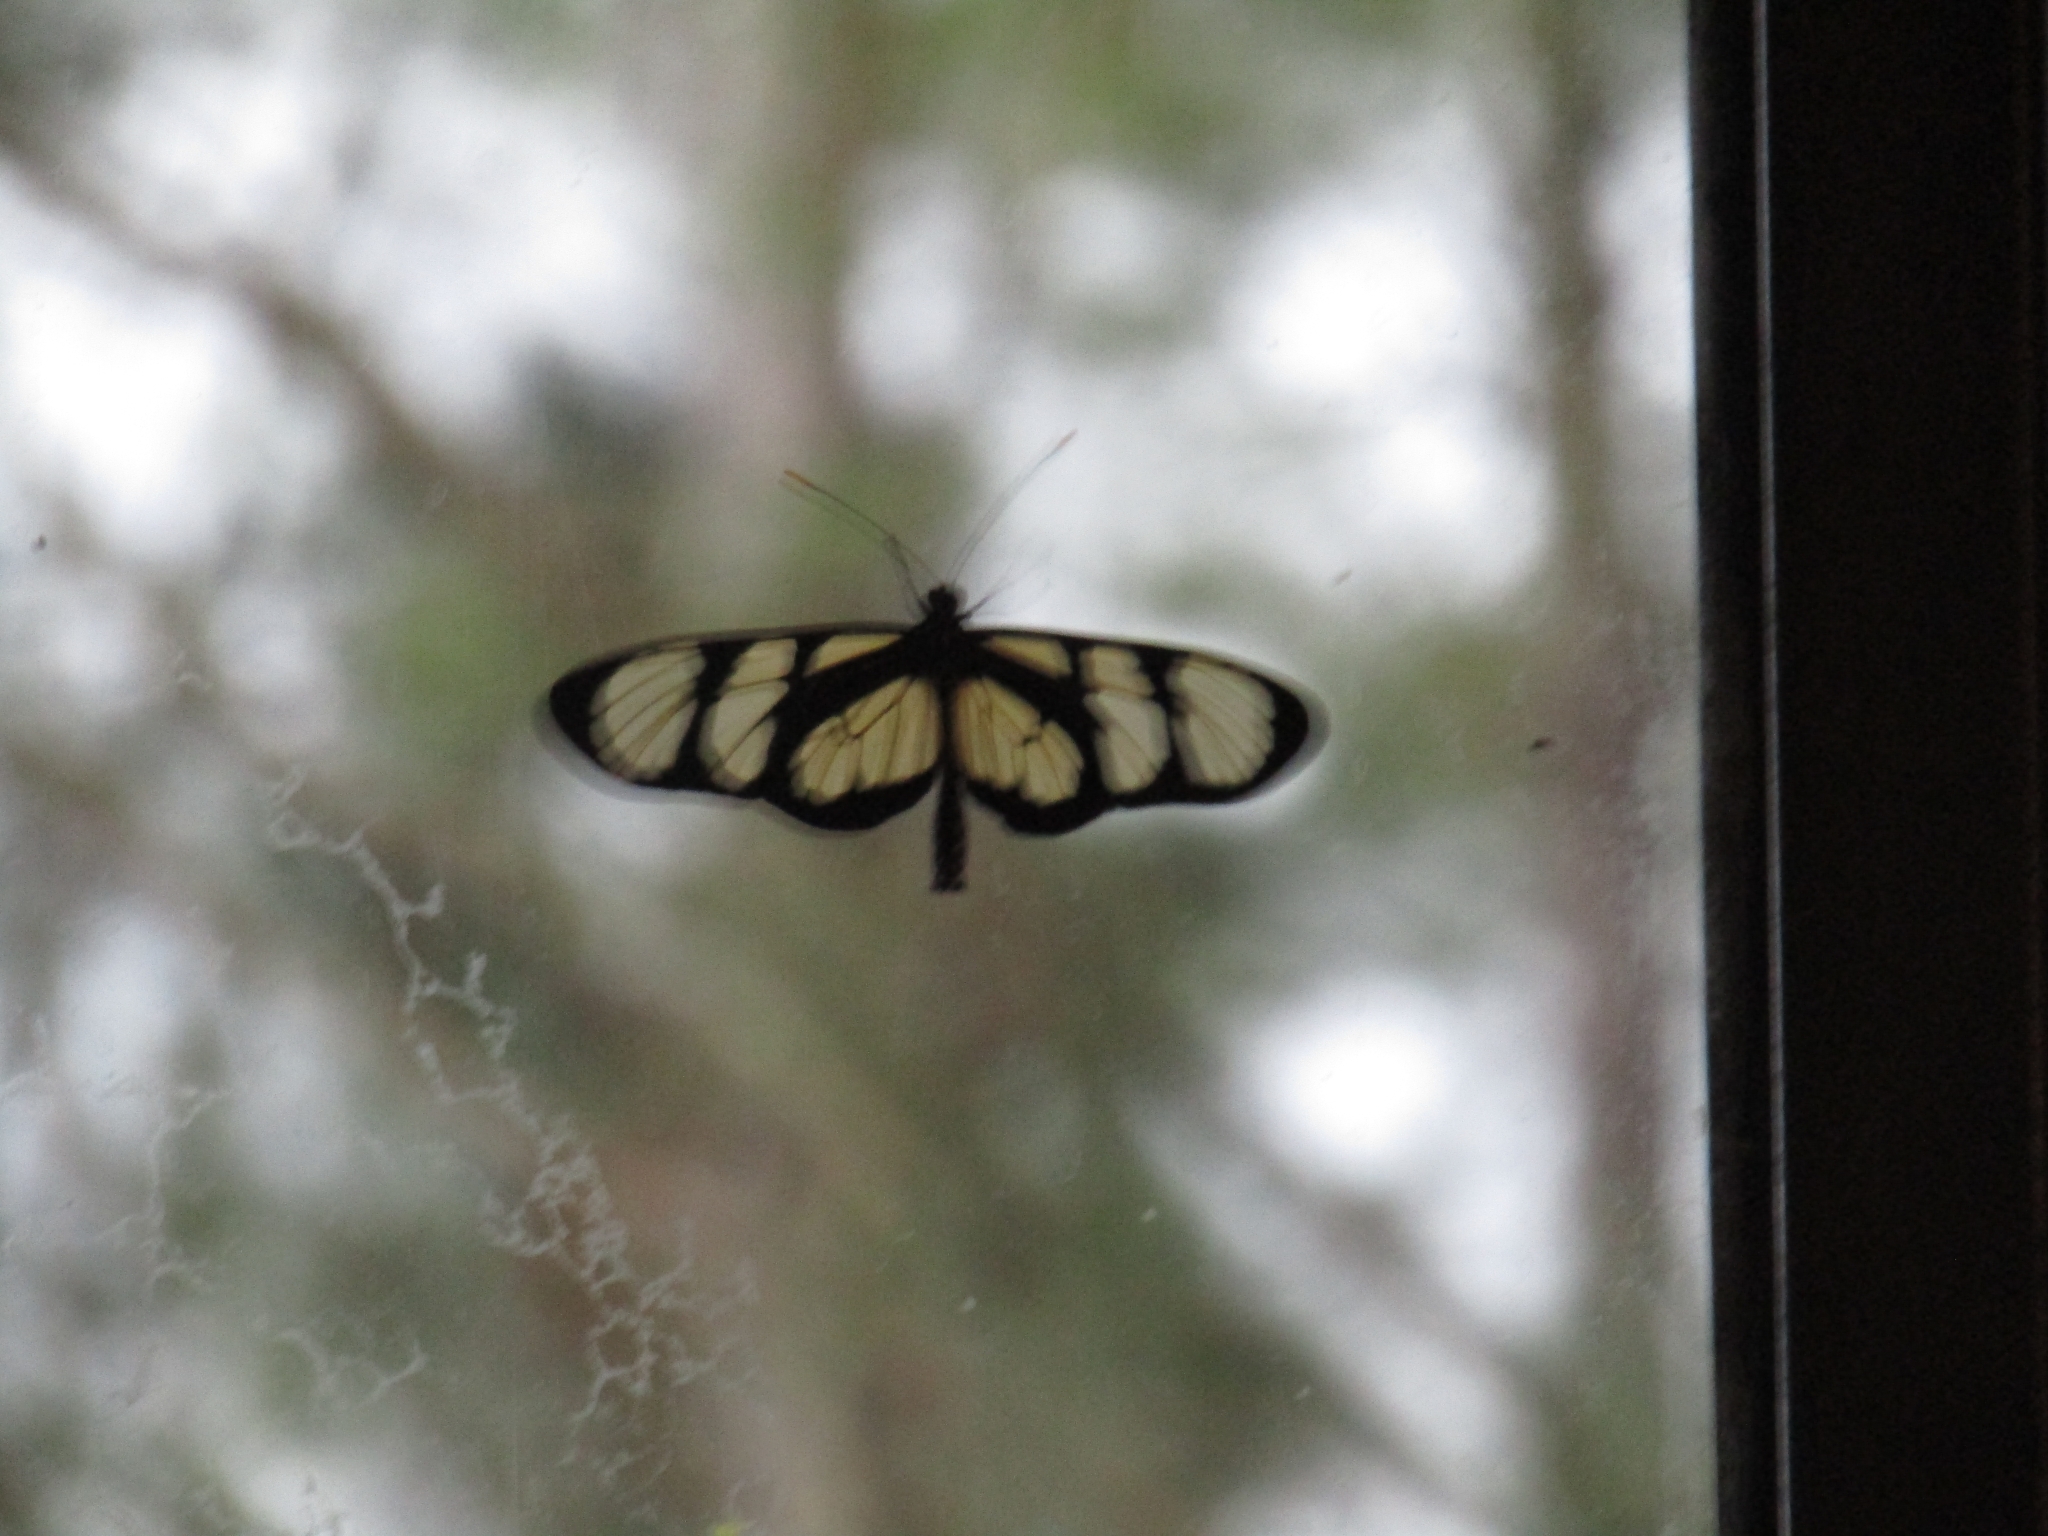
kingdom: Animalia
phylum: Arthropoda
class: Insecta
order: Lepidoptera
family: Nymphalidae
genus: Methona
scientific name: Methona themisto
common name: Themisto amberwing
